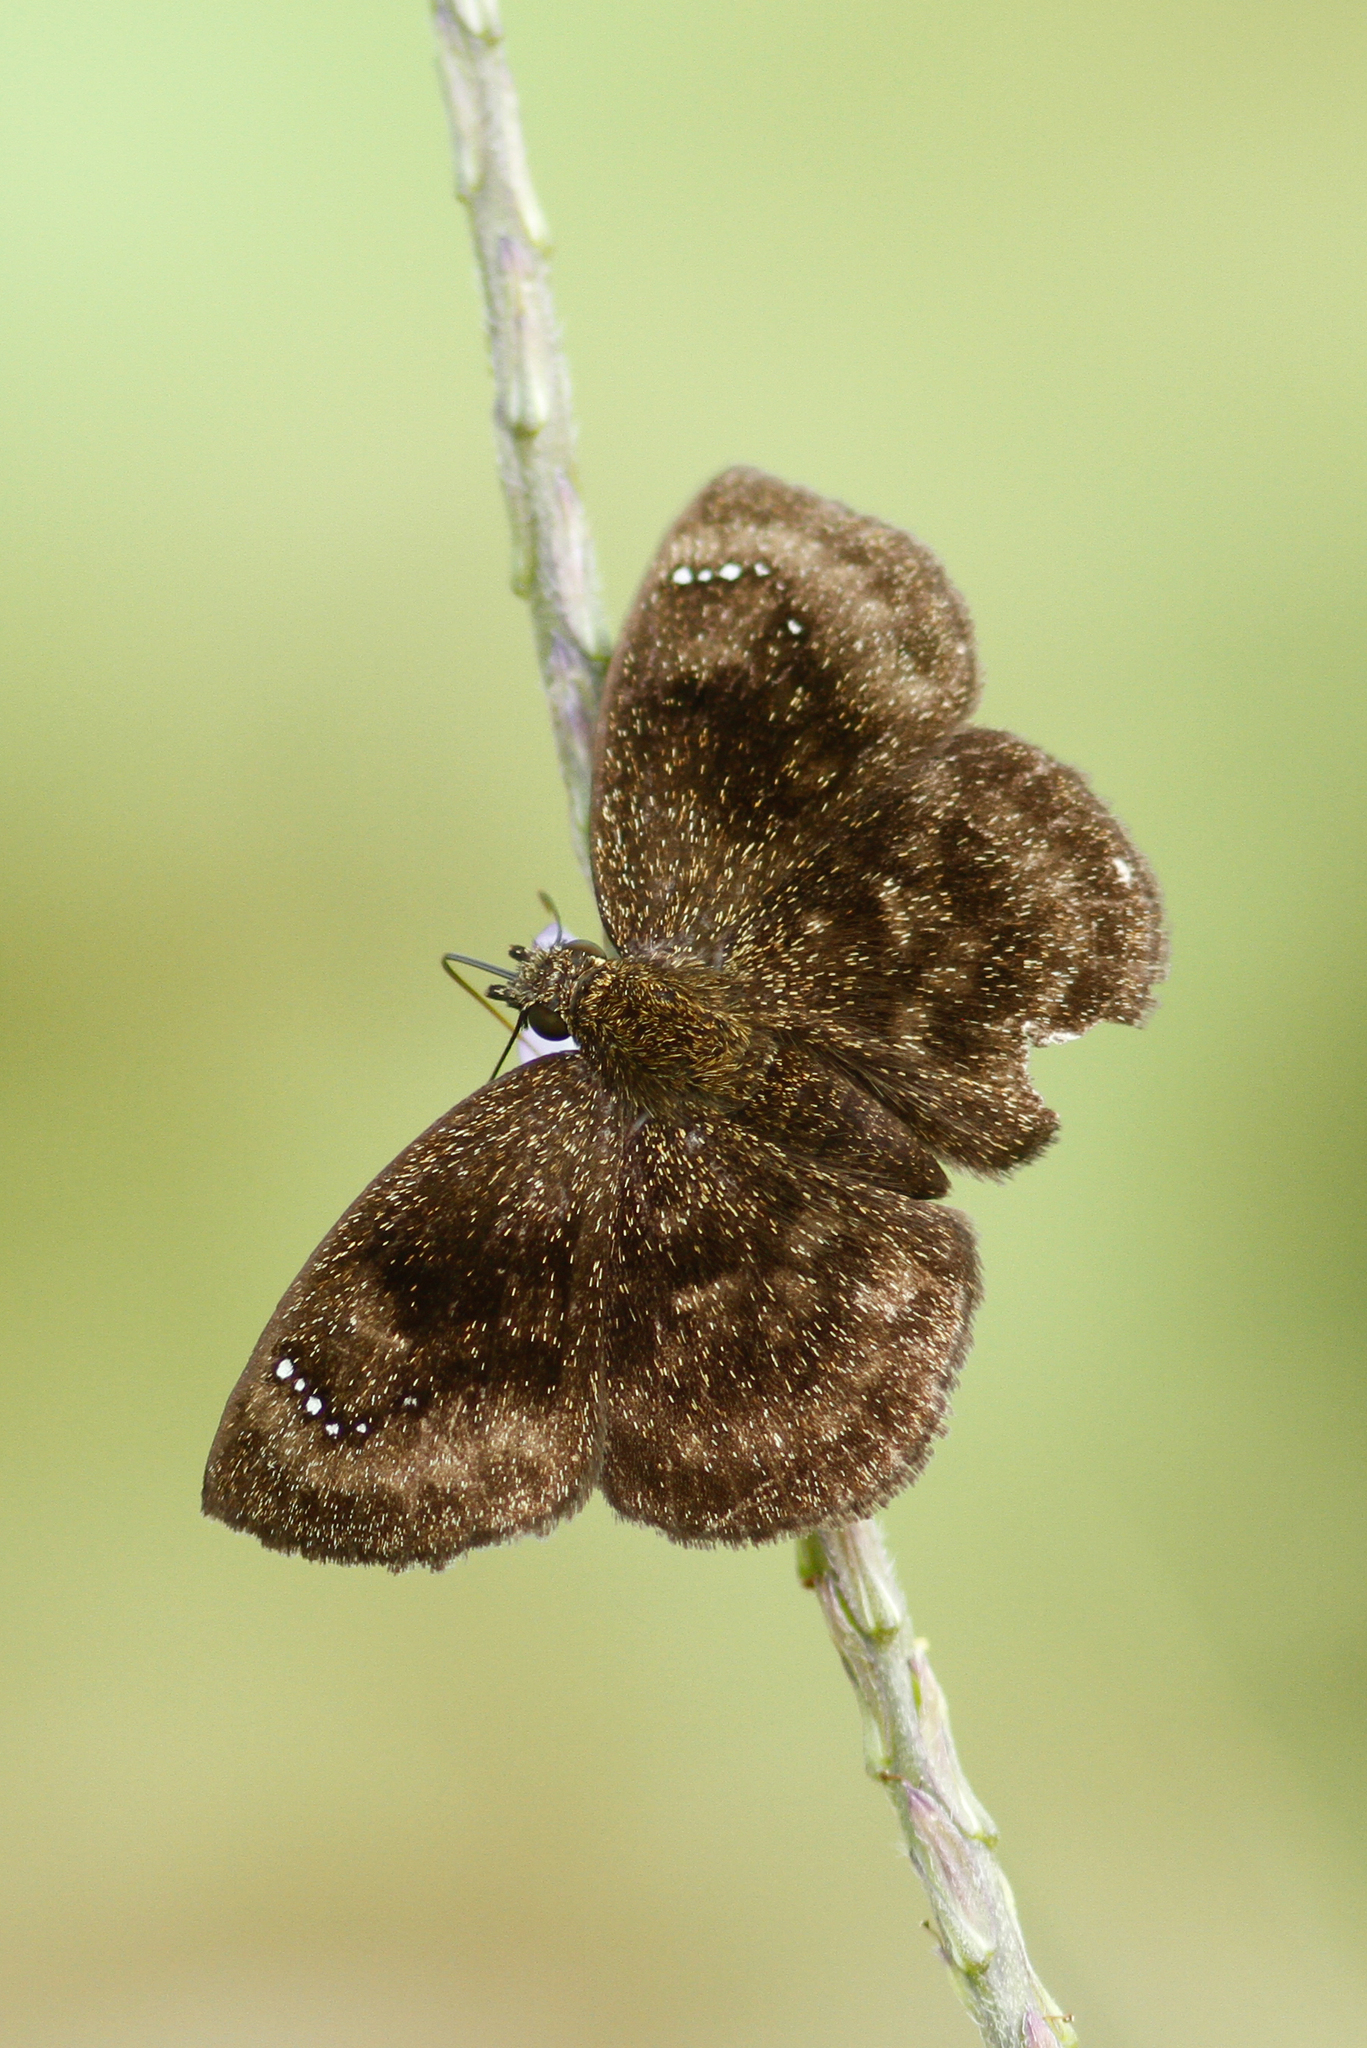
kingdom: Animalia
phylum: Arthropoda
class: Insecta
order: Lepidoptera
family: Hesperiidae
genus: Bolla
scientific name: Bolla atahuallpai
